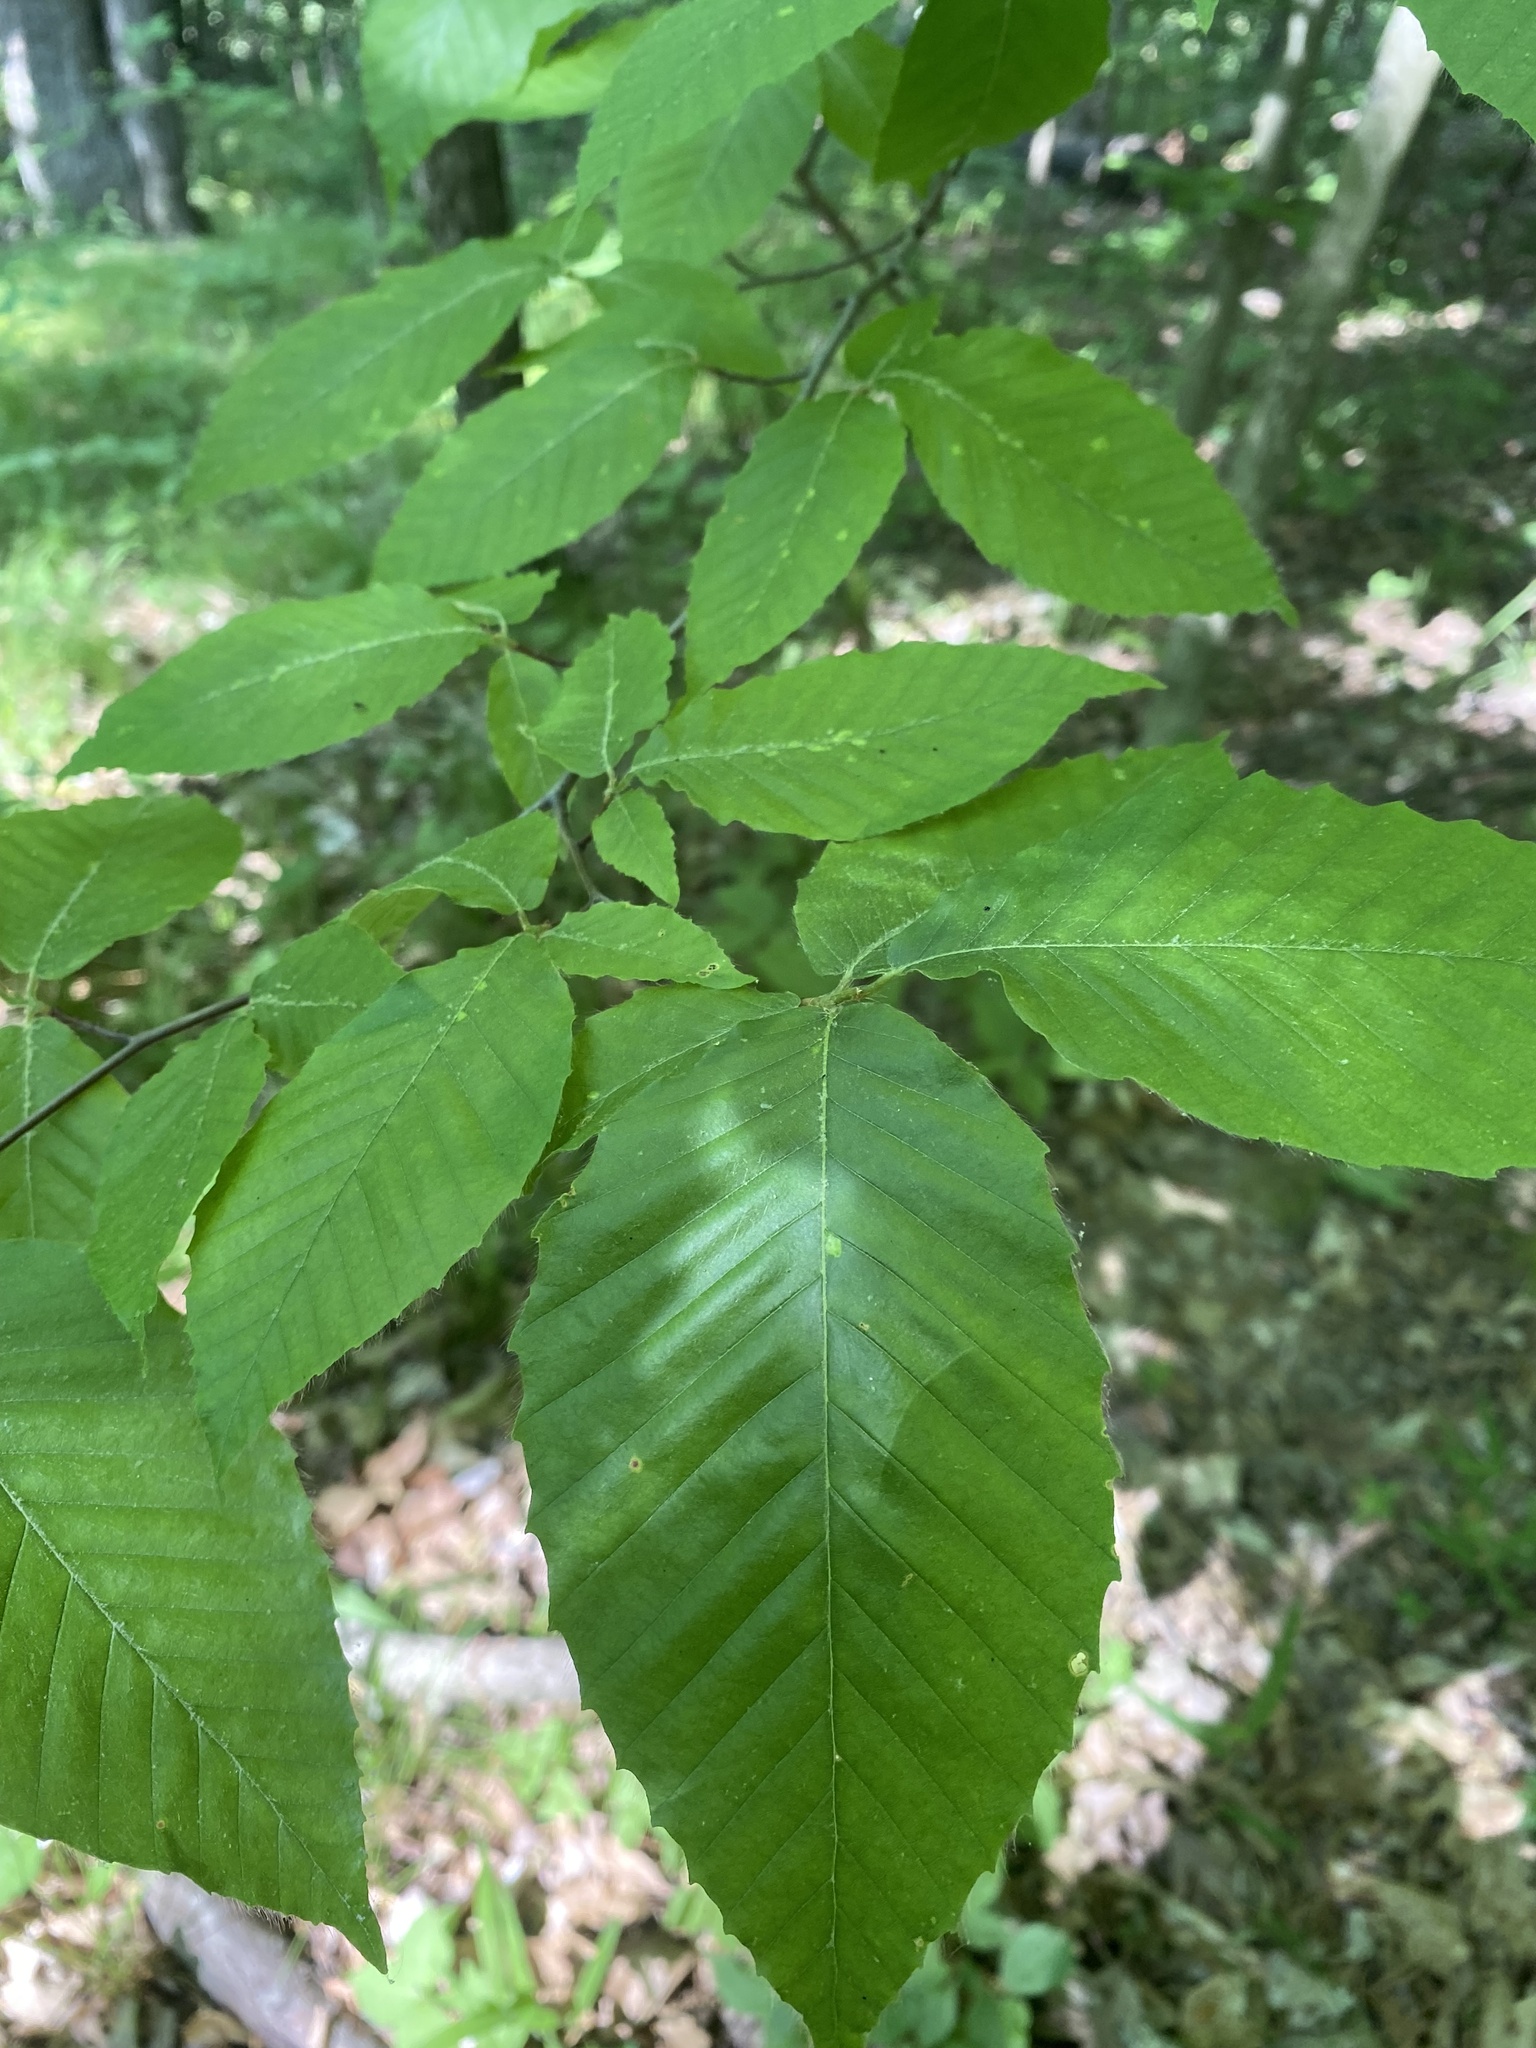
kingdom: Plantae
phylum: Tracheophyta
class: Magnoliopsida
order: Fagales
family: Fagaceae
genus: Fagus
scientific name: Fagus grandifolia
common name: American beech
